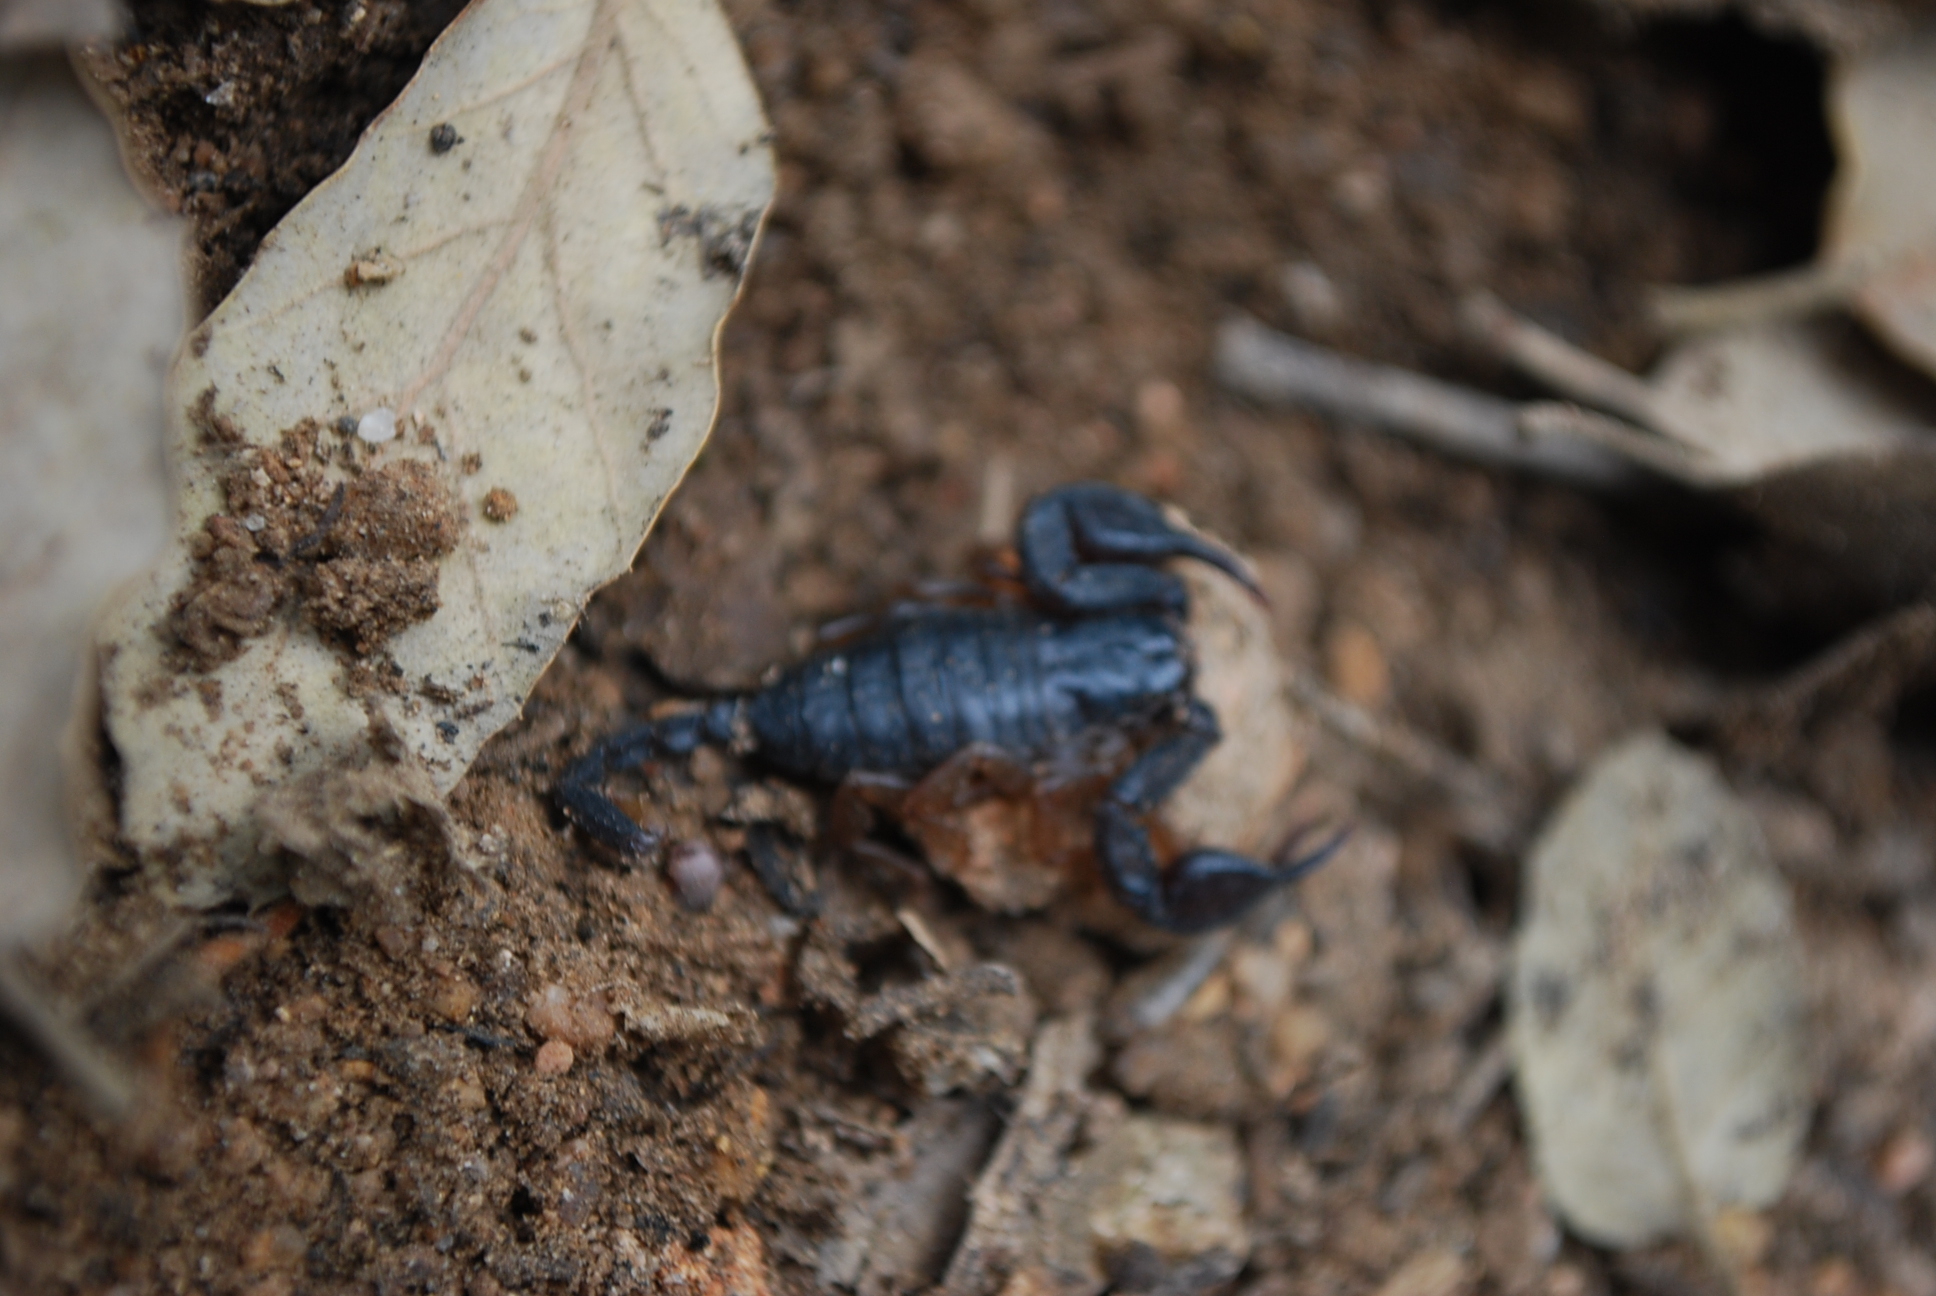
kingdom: Animalia
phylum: Arthropoda
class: Arachnida
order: Scorpiones
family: Euscorpiidae
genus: Euscorpius
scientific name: Euscorpius flavicaudis
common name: European yellow-tailed scorpion
